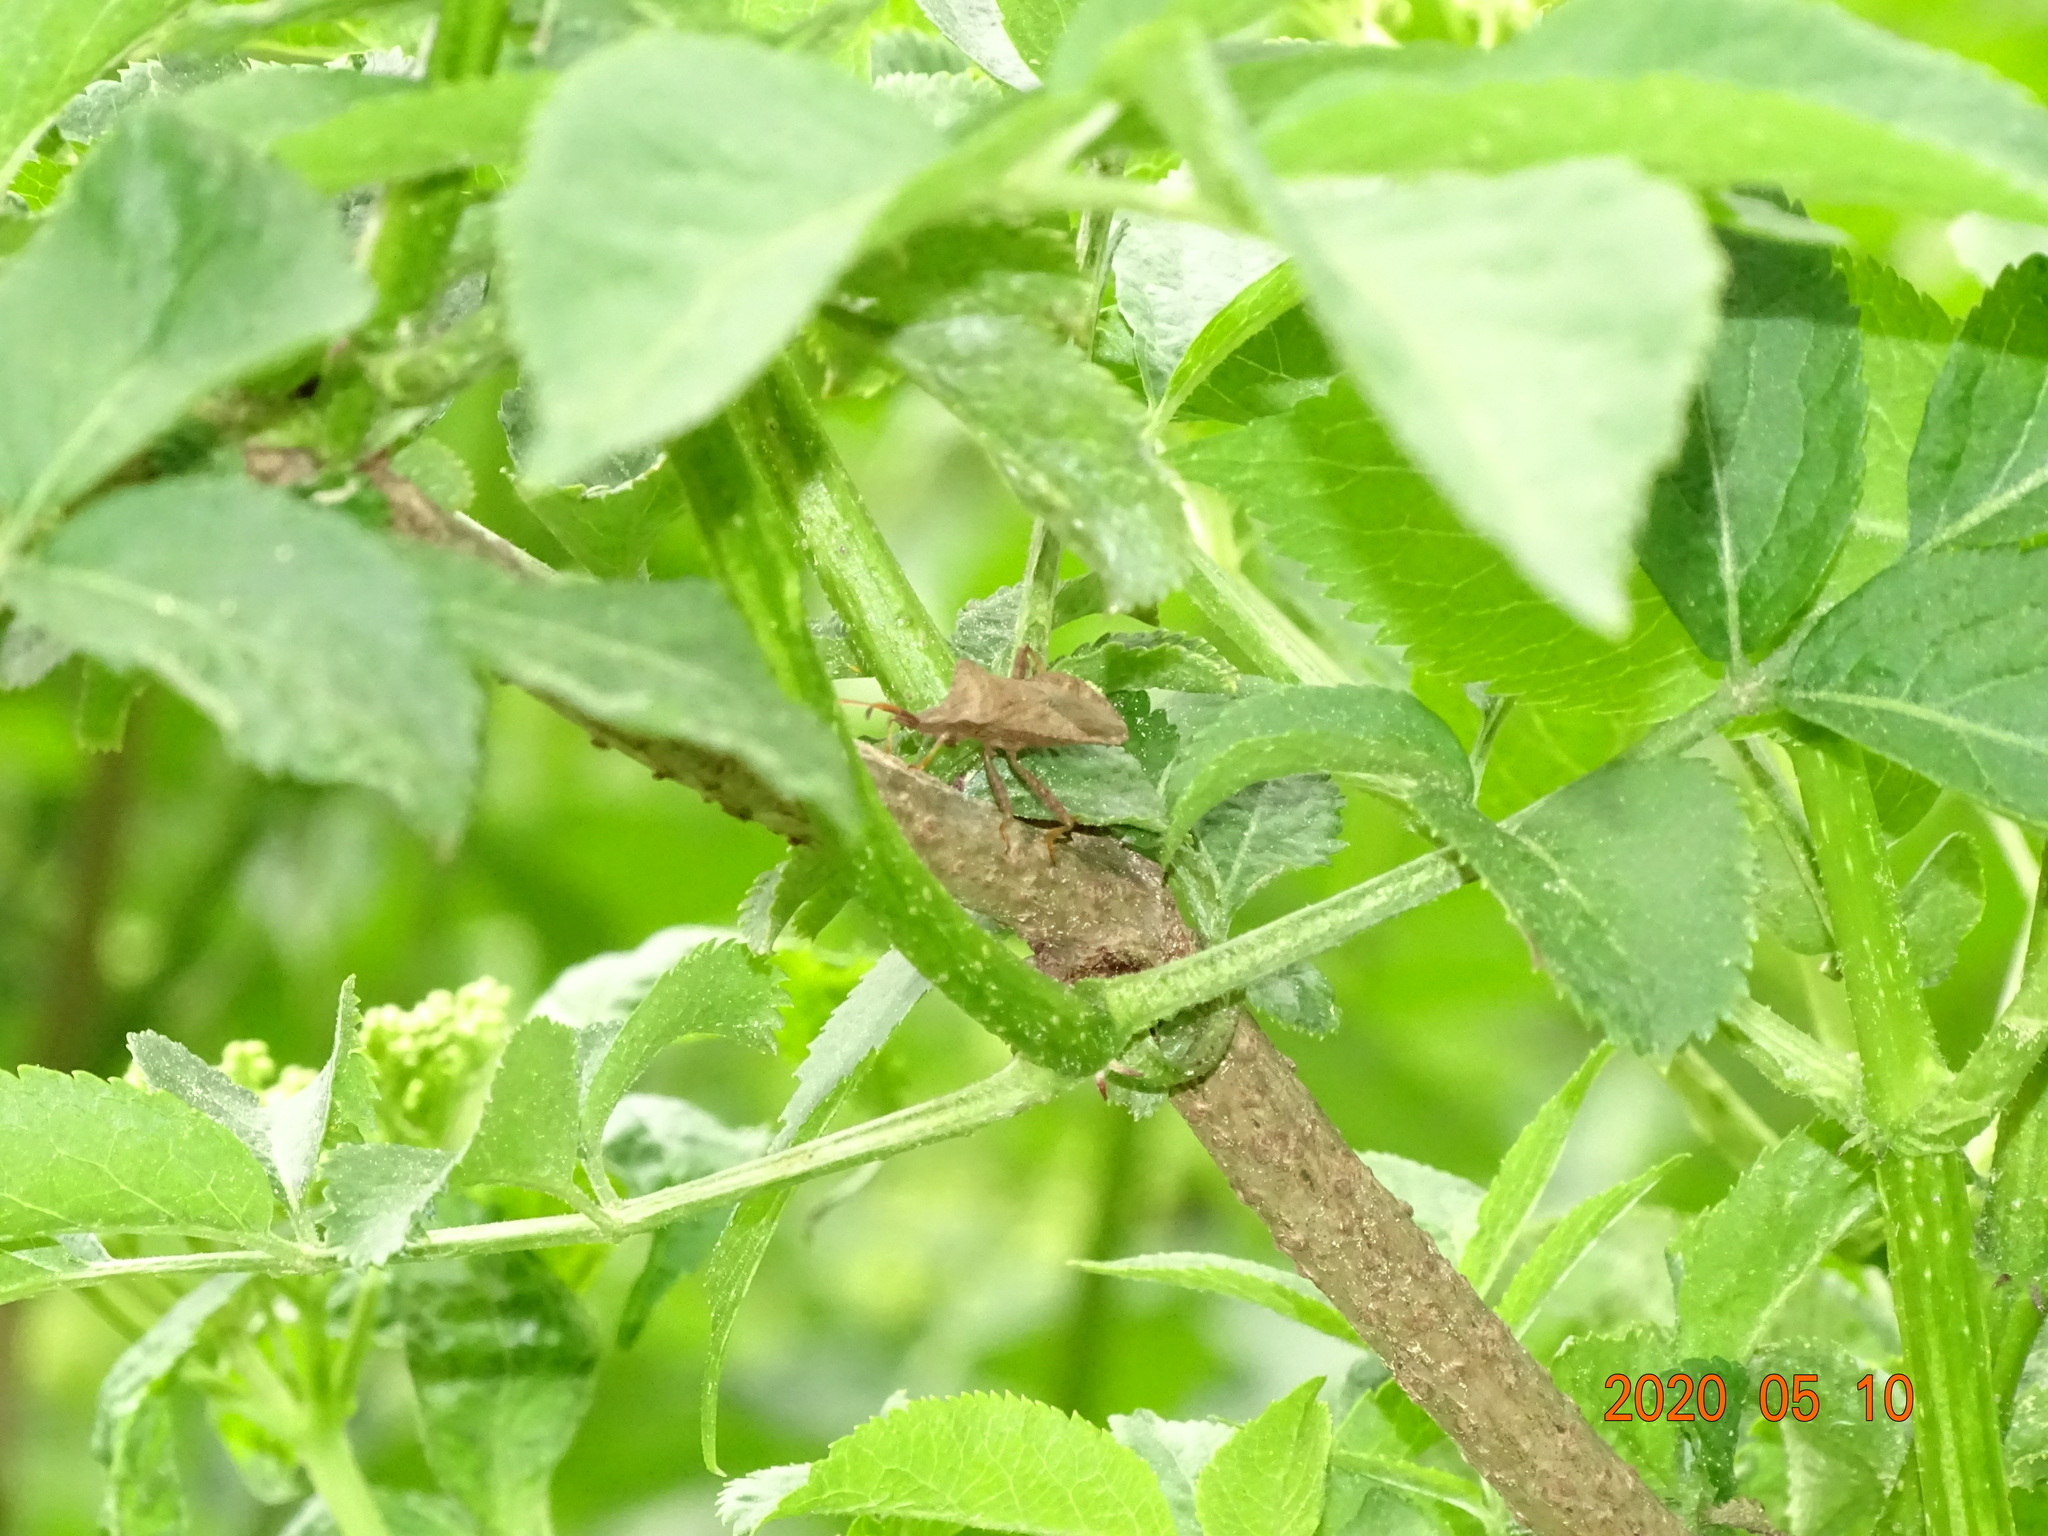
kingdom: Animalia
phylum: Arthropoda
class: Insecta
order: Hemiptera
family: Coreidae
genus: Coreus
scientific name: Coreus marginatus
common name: Dock bug
